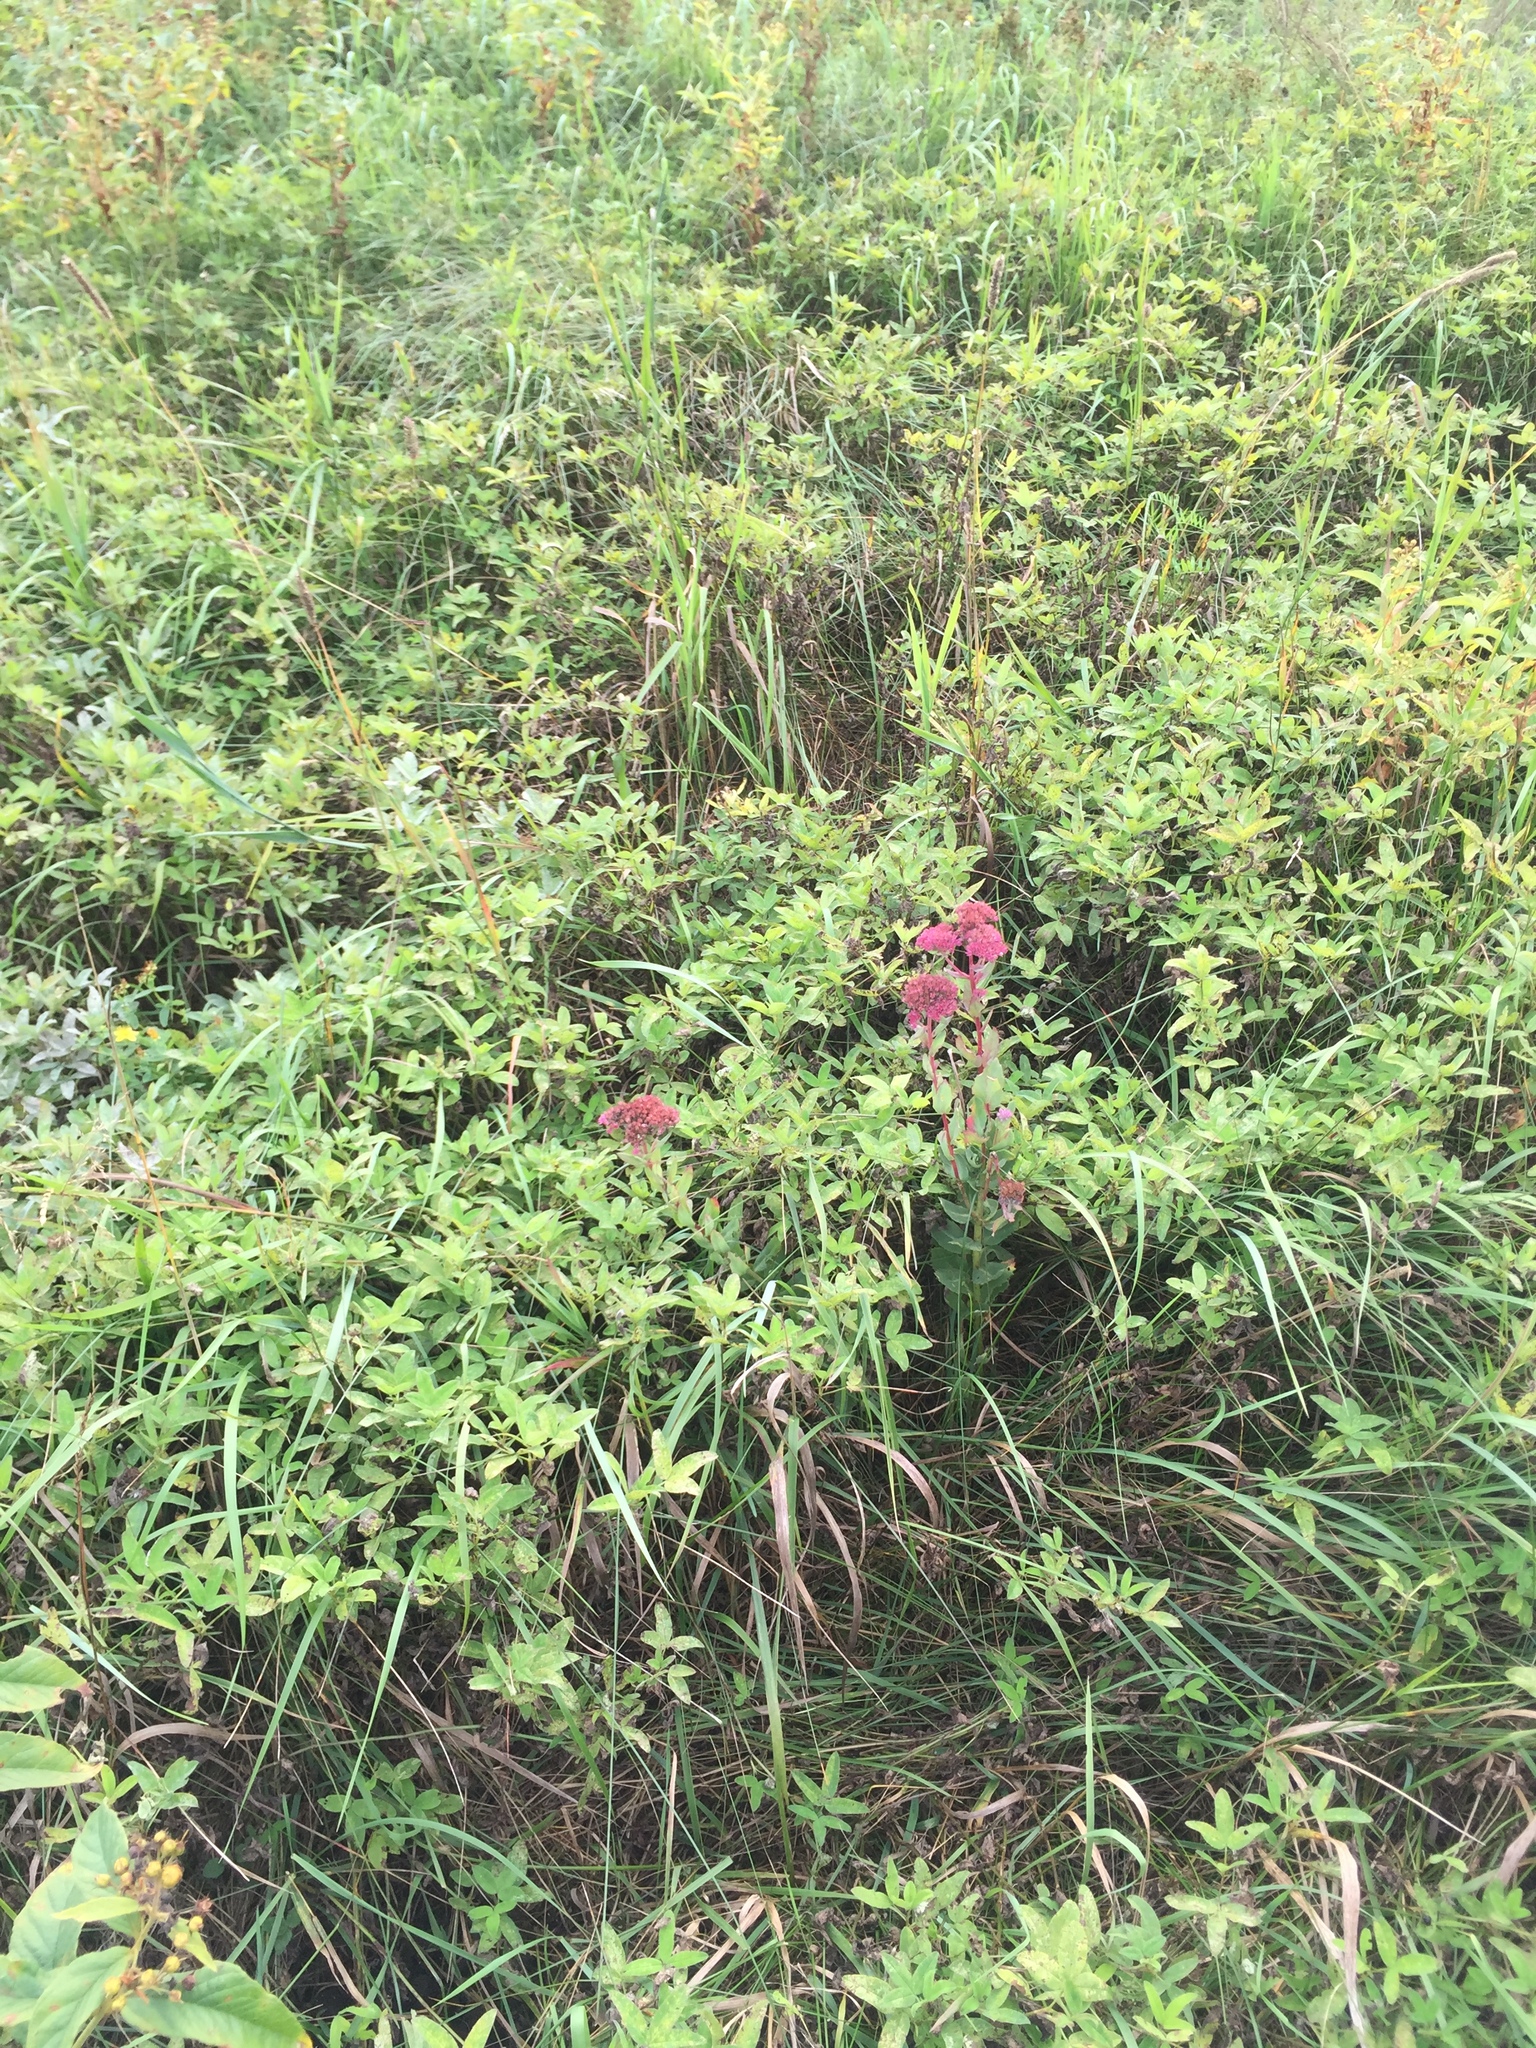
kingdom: Plantae
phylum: Tracheophyta
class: Magnoliopsida
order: Saxifragales
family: Crassulaceae
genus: Hylotelephium
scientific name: Hylotelephium telephium
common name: Live-forever
